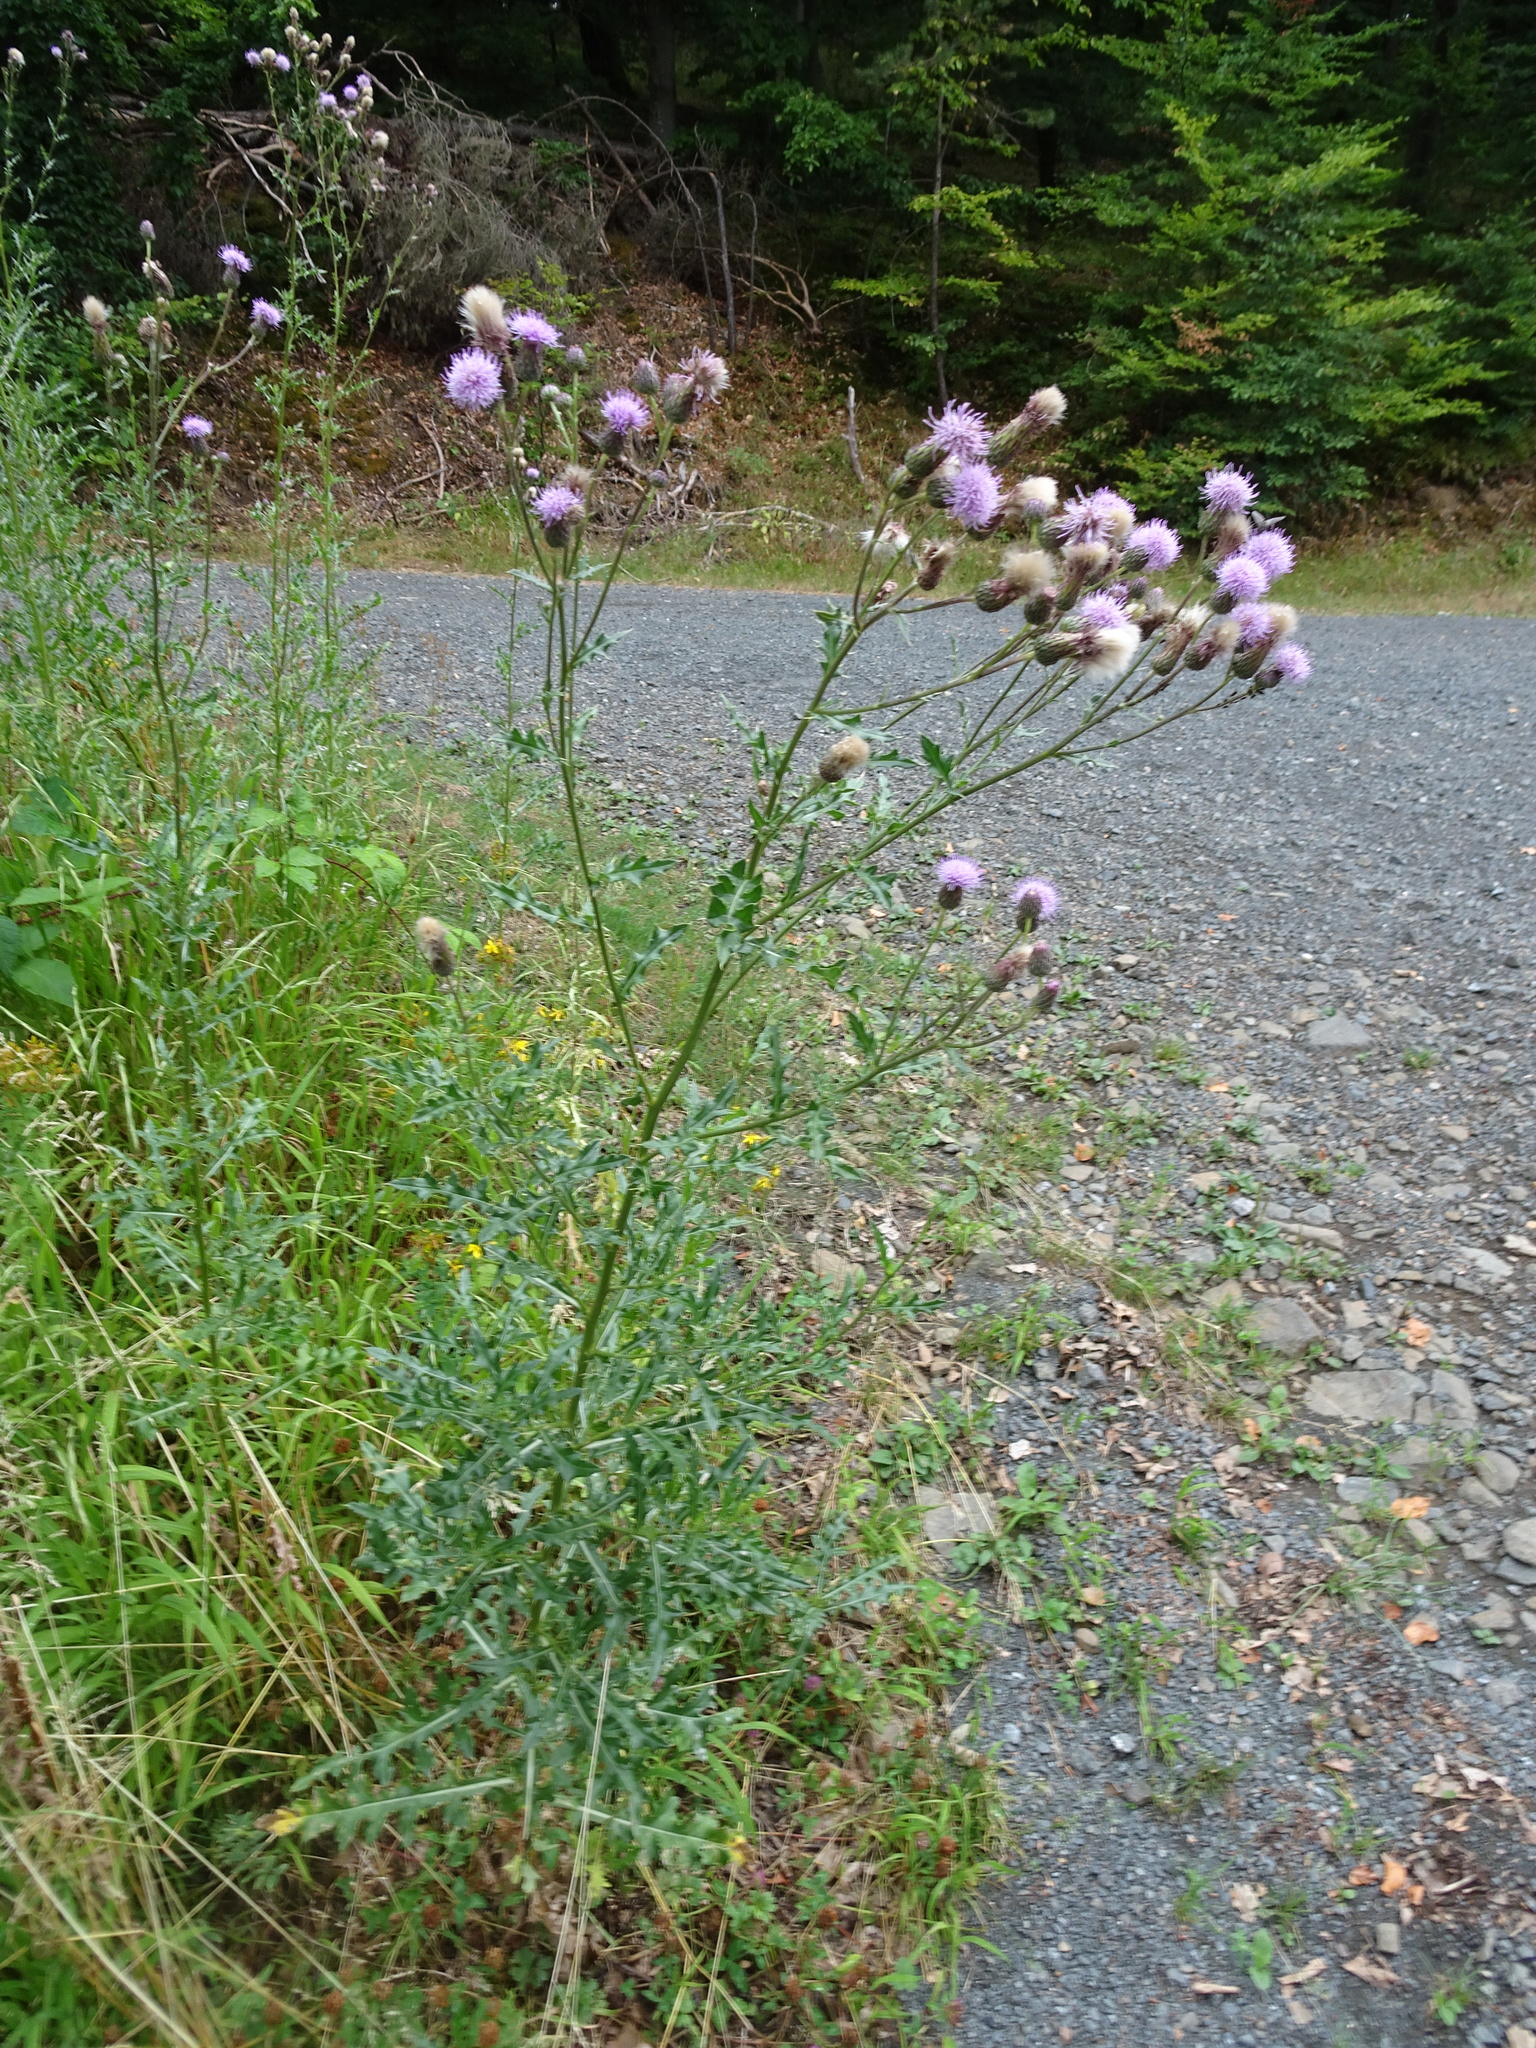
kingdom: Plantae
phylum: Tracheophyta
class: Magnoliopsida
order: Asterales
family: Asteraceae
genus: Cirsium
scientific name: Cirsium arvense
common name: Creeping thistle
